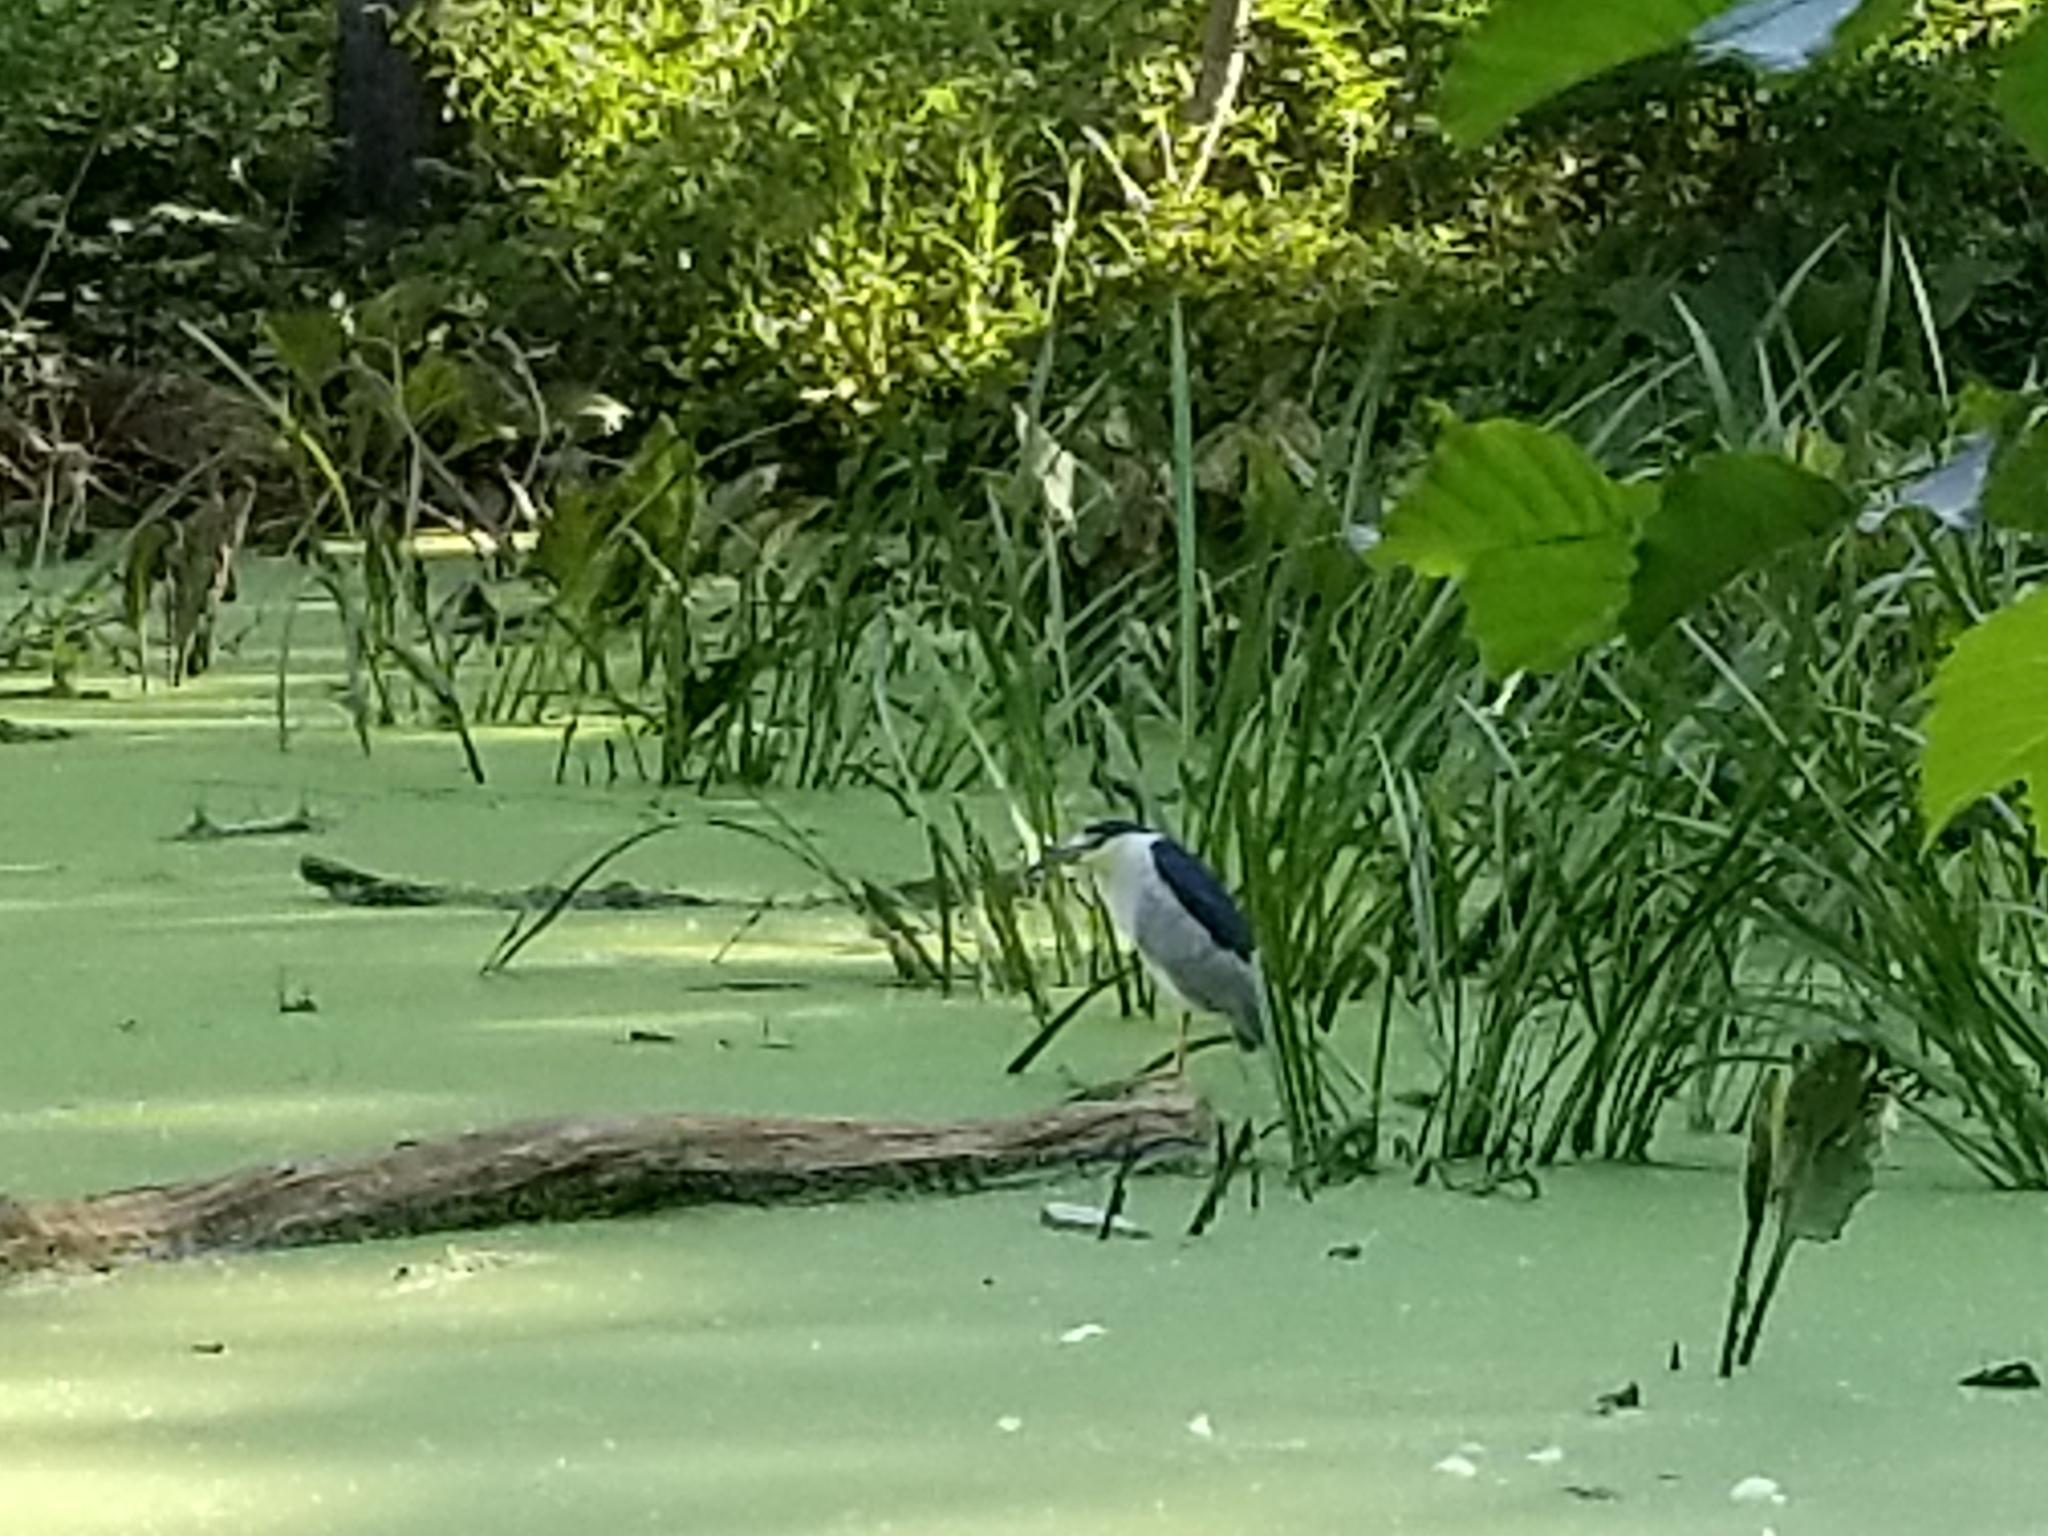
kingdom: Animalia
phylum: Chordata
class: Aves
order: Pelecaniformes
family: Ardeidae
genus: Nycticorax
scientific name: Nycticorax nycticorax
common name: Black-crowned night heron
